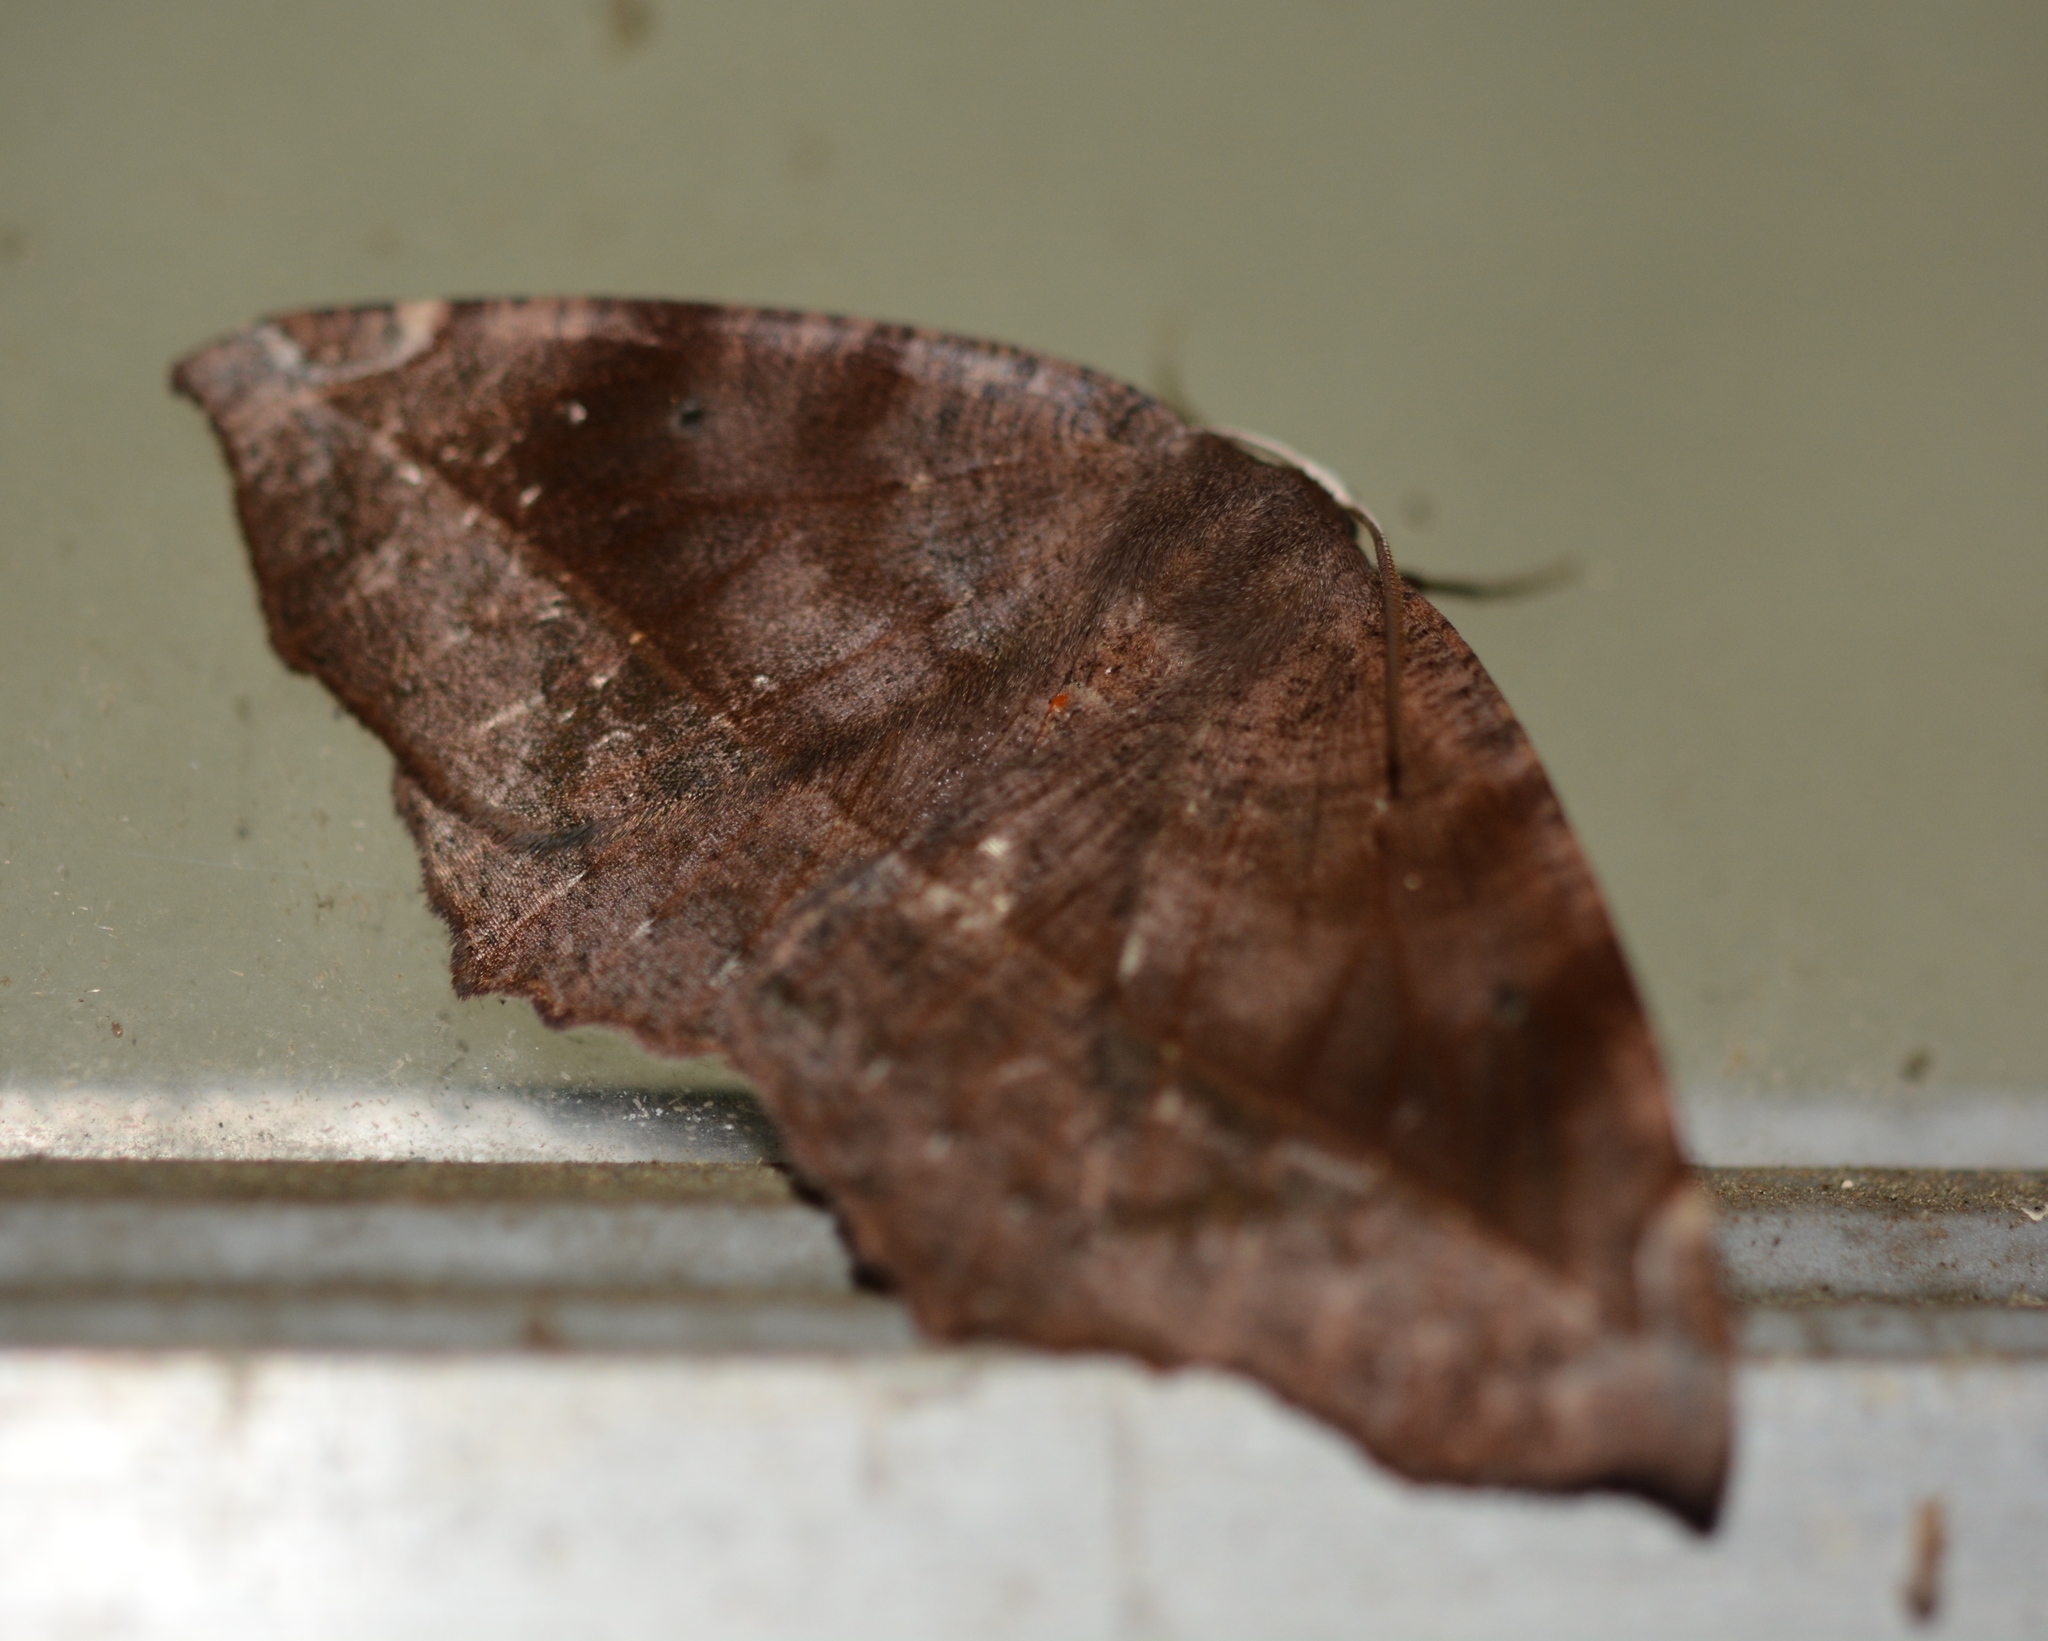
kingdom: Animalia
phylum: Arthropoda
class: Insecta
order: Lepidoptera
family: Geometridae
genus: Eutrapela
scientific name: Eutrapela clemataria
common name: Curved-toothed geometer
